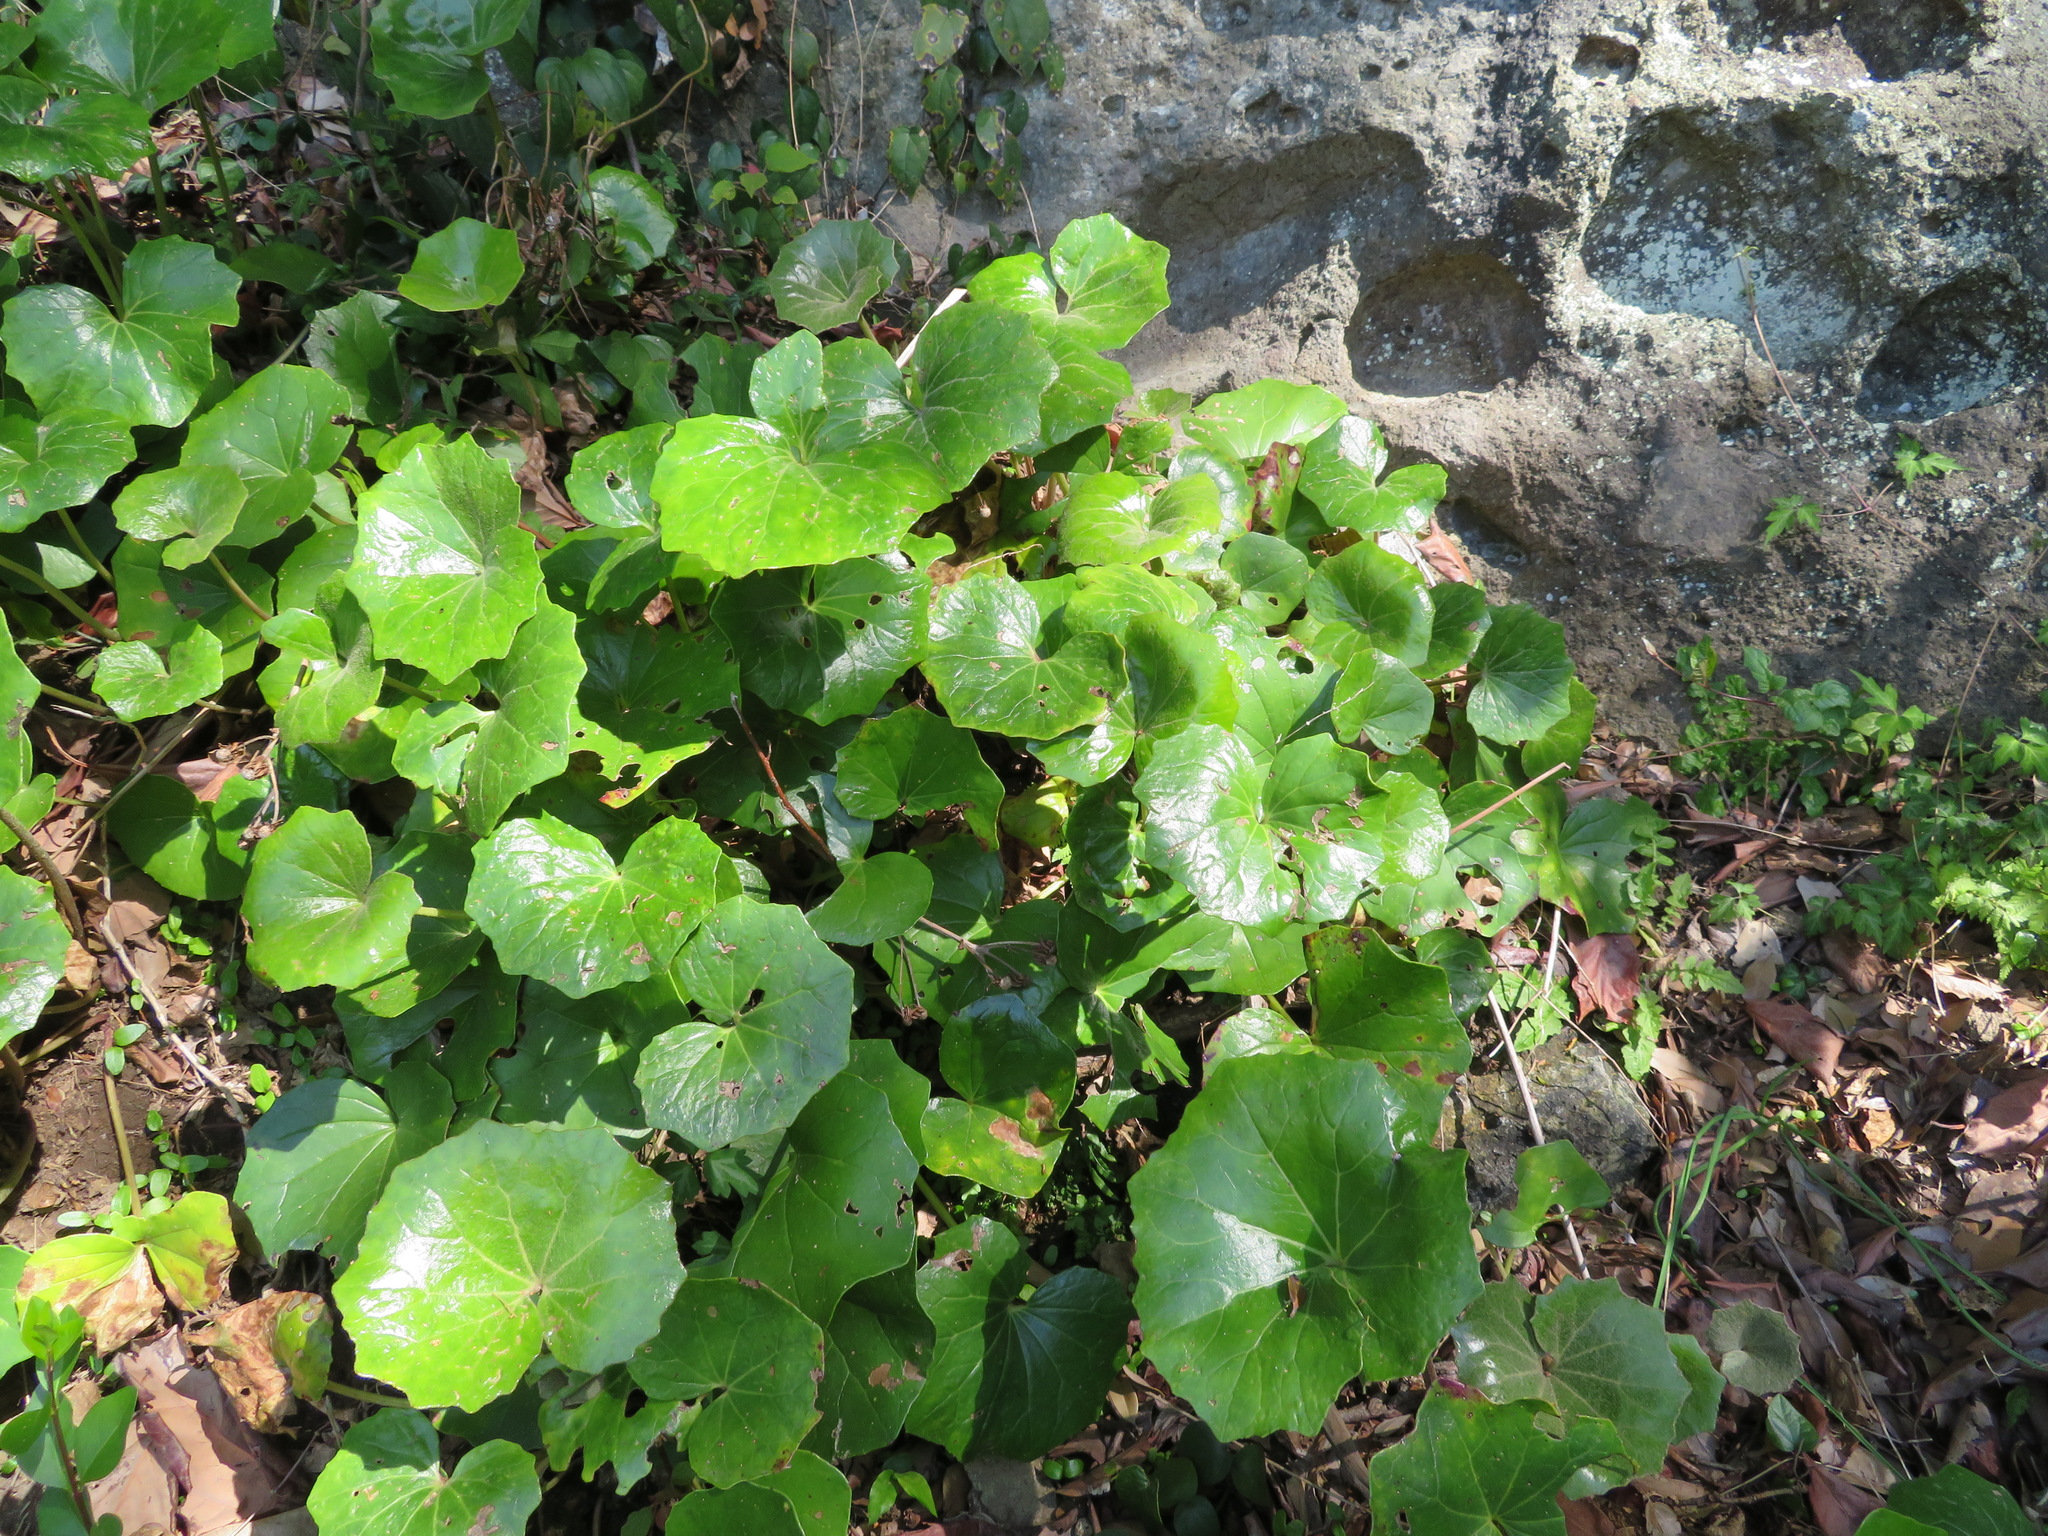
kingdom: Plantae
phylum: Tracheophyta
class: Magnoliopsida
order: Asterales
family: Asteraceae
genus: Farfugium
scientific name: Farfugium japonicum
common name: Leopardplant
